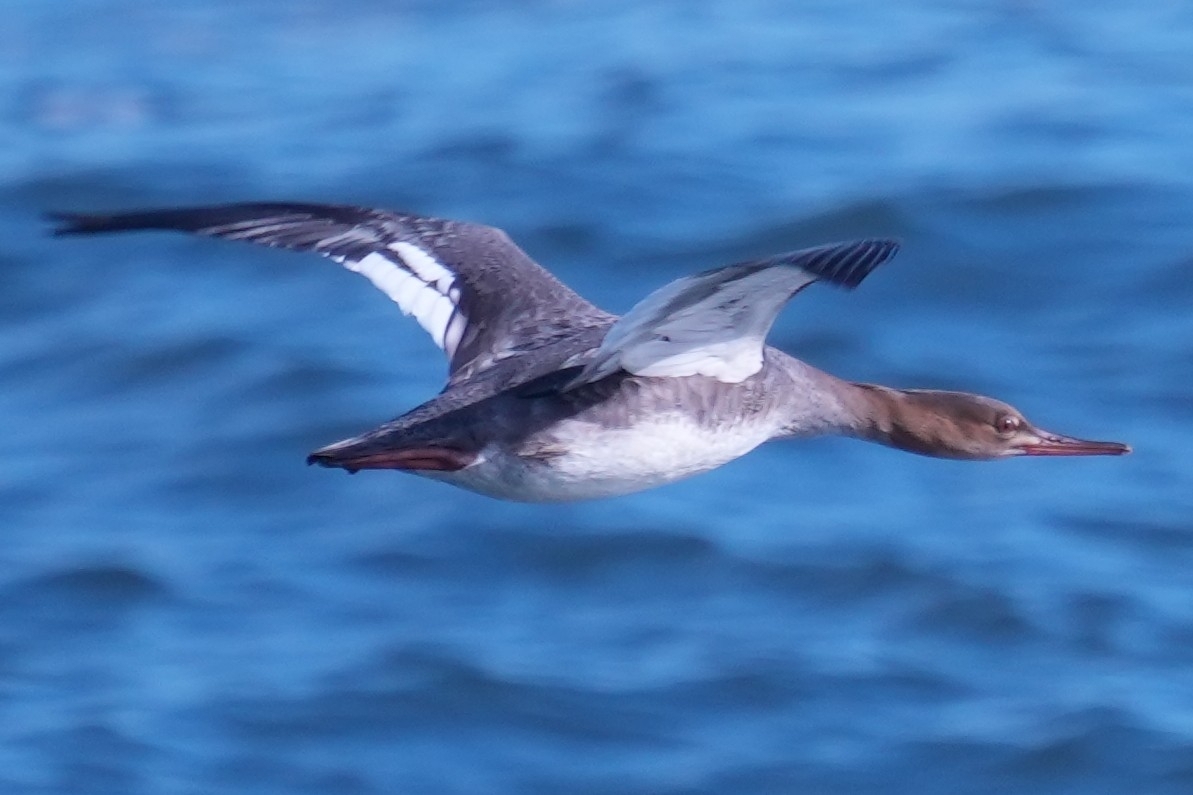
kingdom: Animalia
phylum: Chordata
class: Aves
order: Anseriformes
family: Anatidae
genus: Mergus
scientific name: Mergus serrator
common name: Red-breasted merganser
